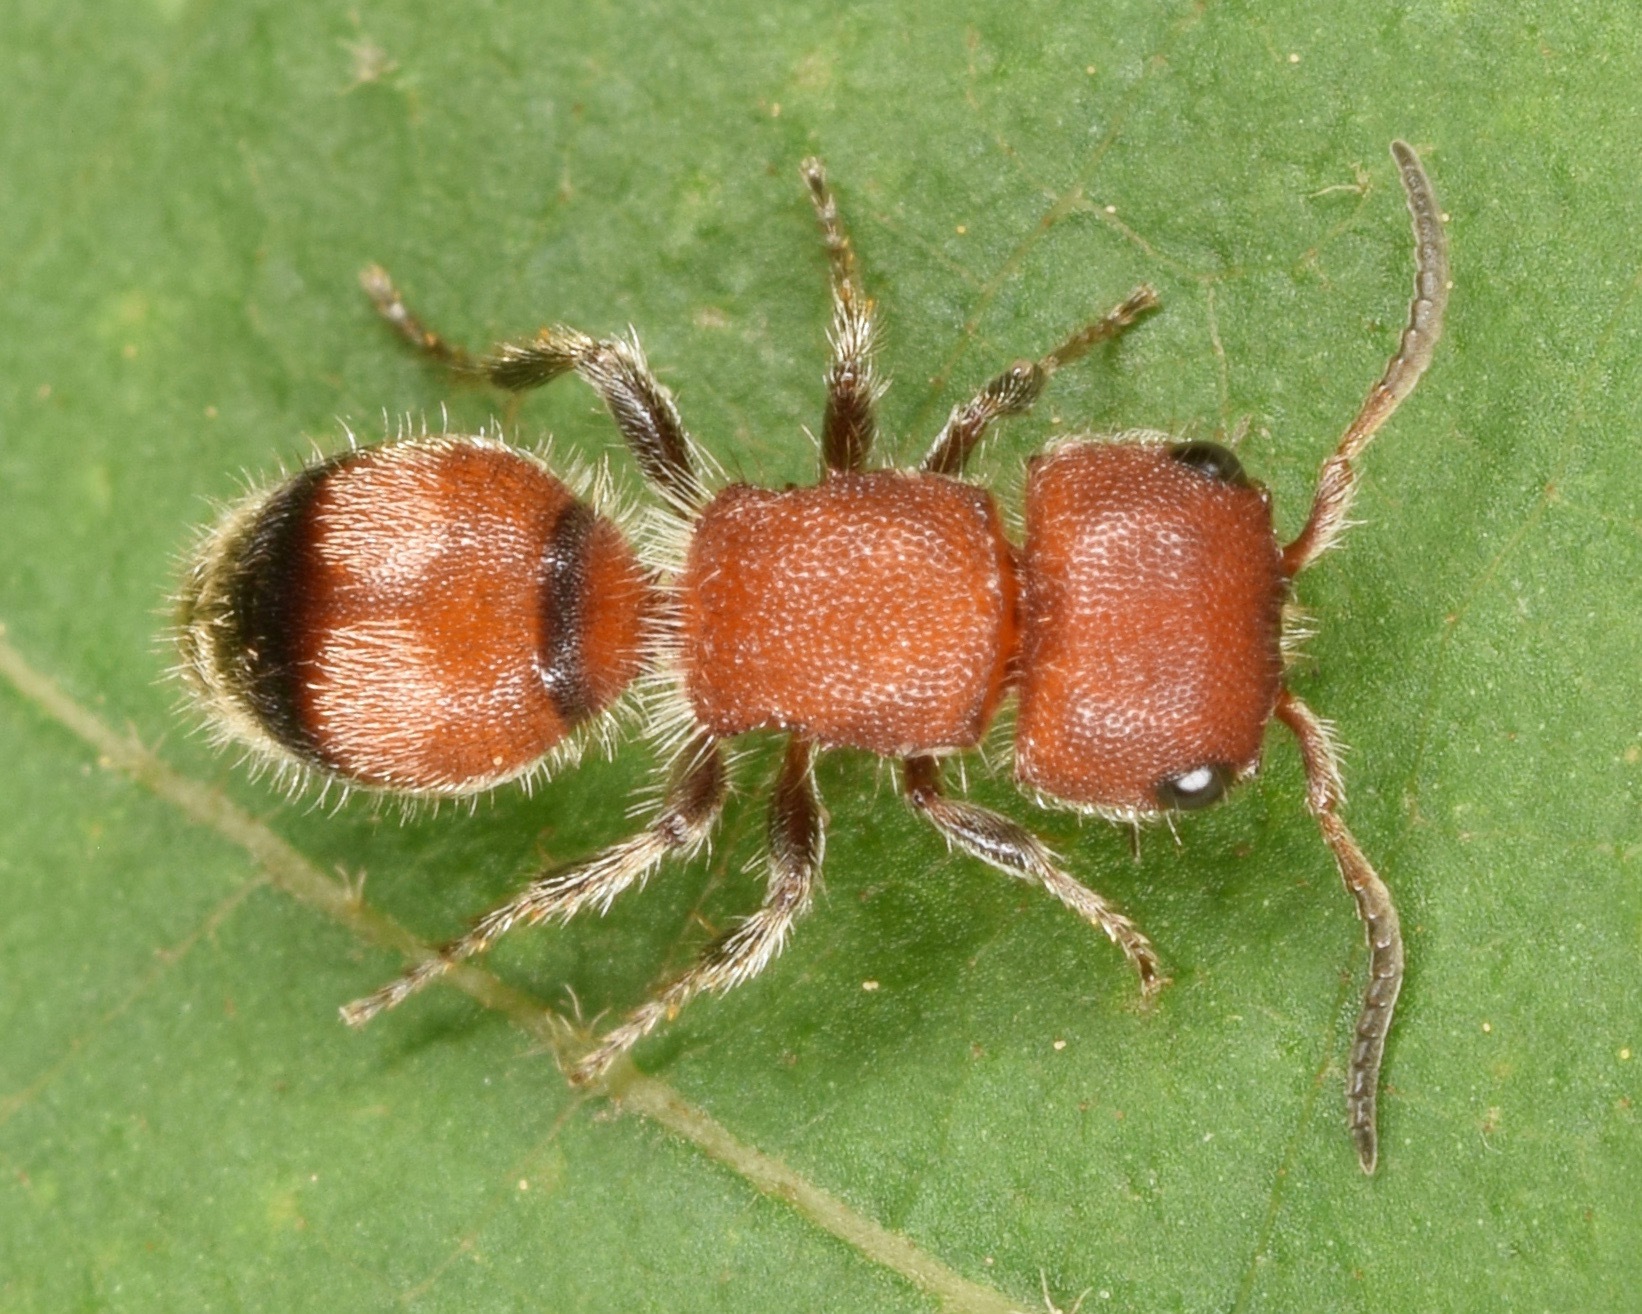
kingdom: Animalia
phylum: Arthropoda
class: Insecta
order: Hymenoptera
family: Mutillidae
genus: Pseudomethoca
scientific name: Pseudomethoca
